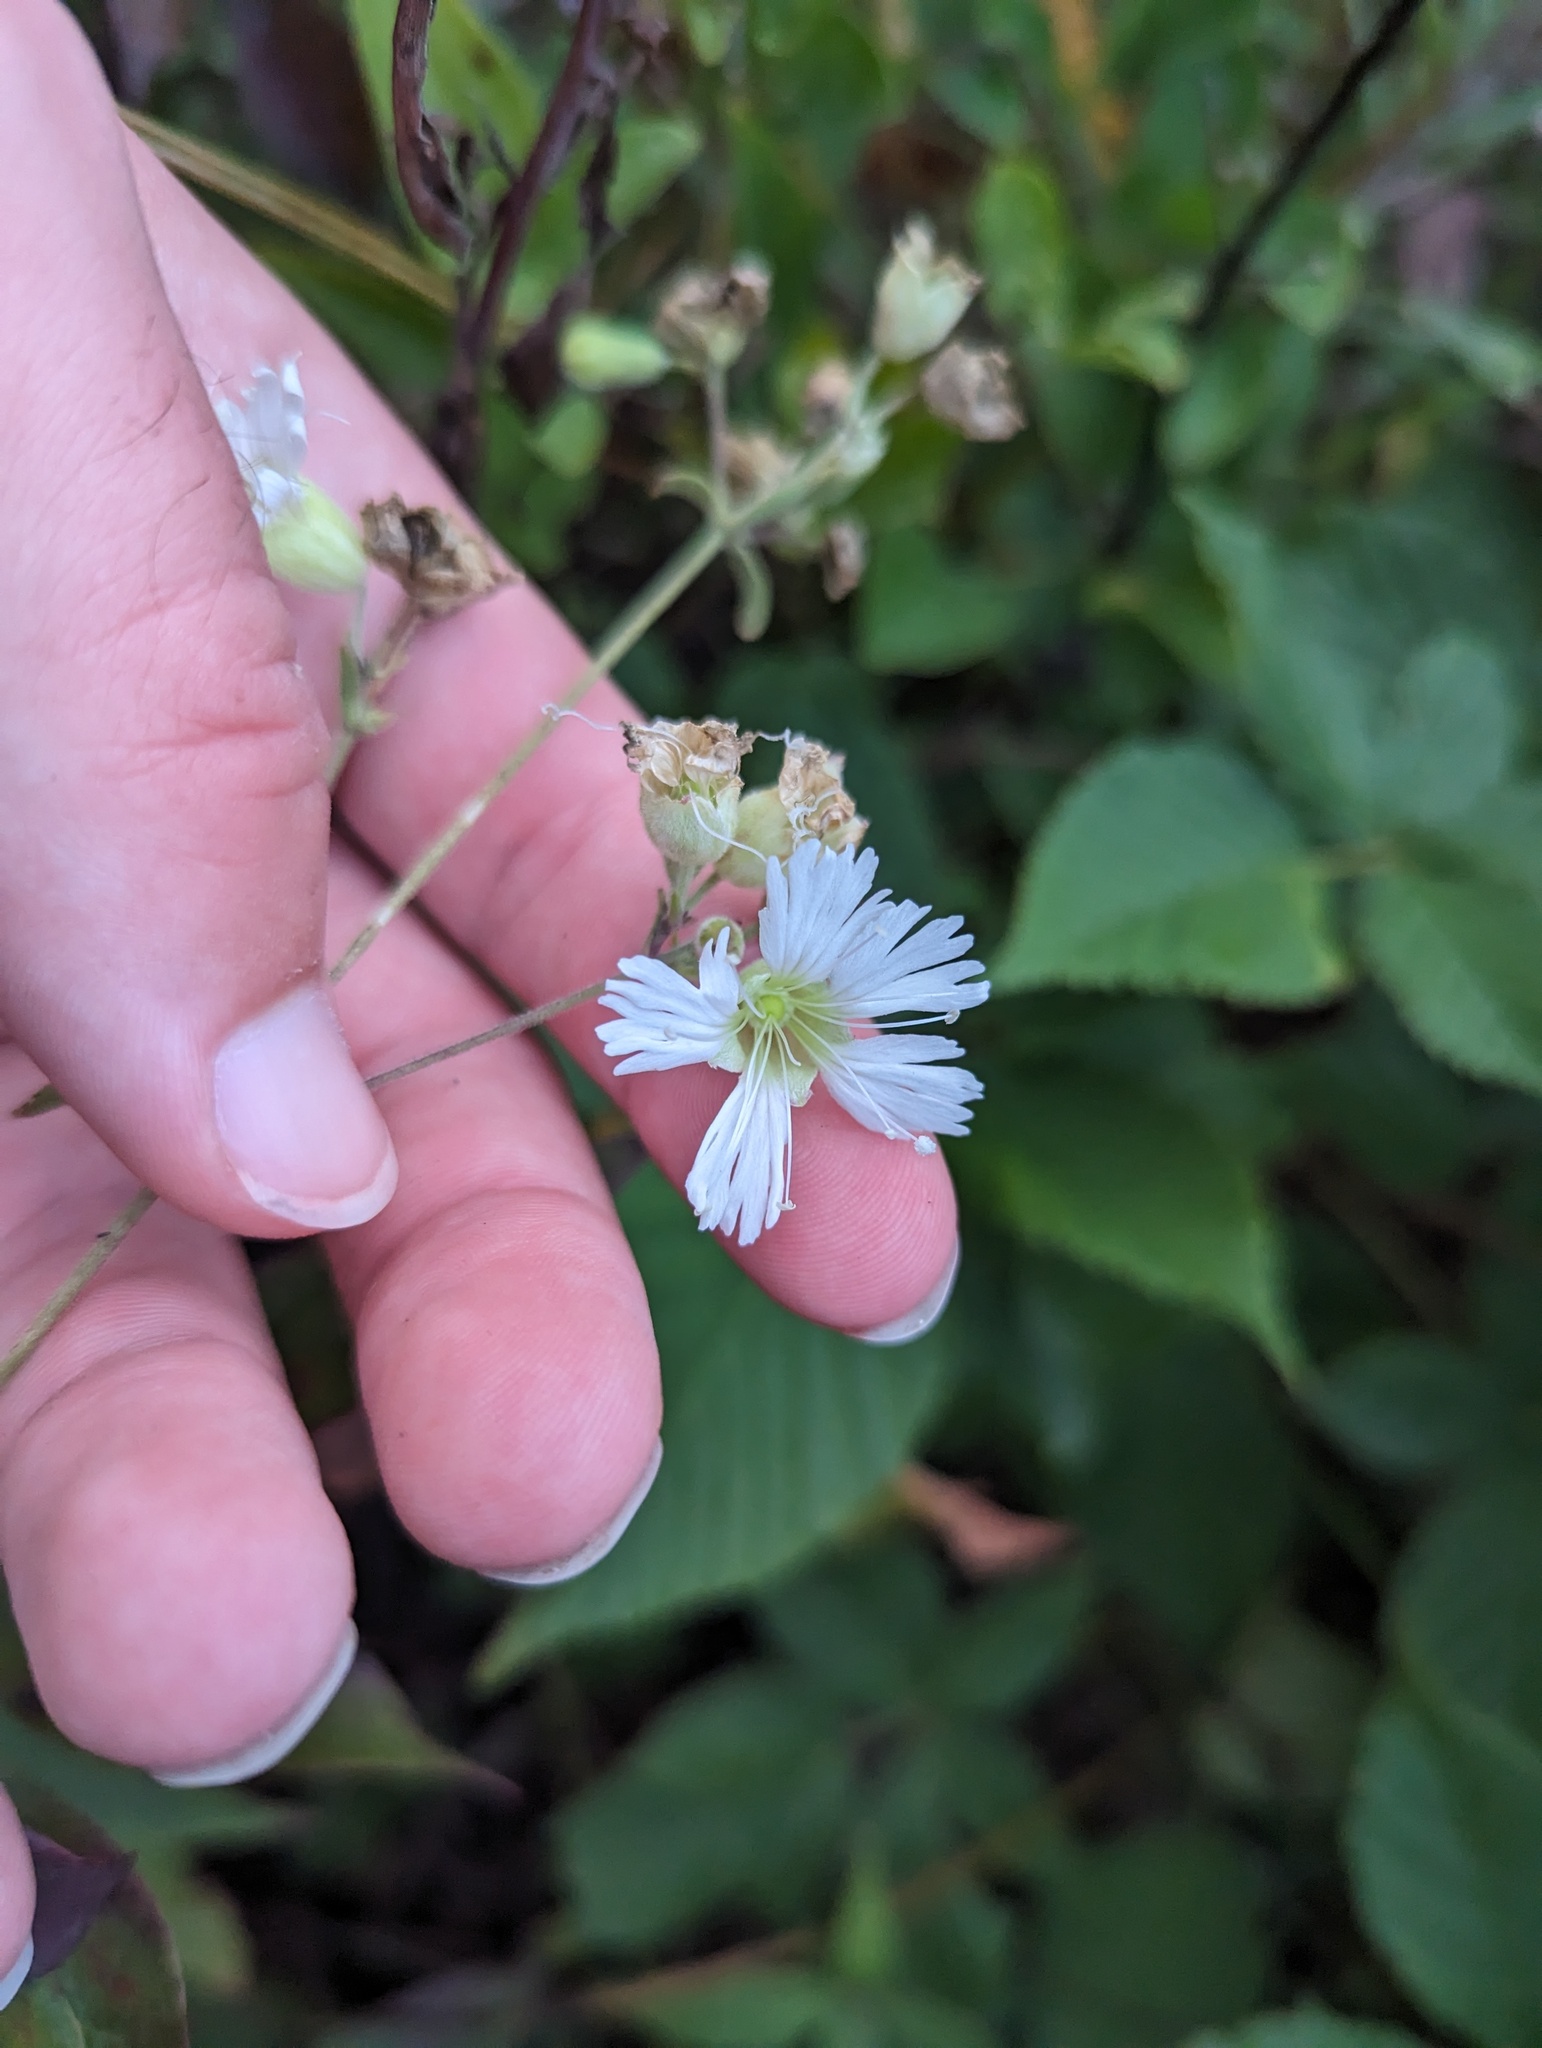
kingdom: Plantae
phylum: Tracheophyta
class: Magnoliopsida
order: Caryophyllales
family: Caryophyllaceae
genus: Silene
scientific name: Silene stellata
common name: Starry campion
